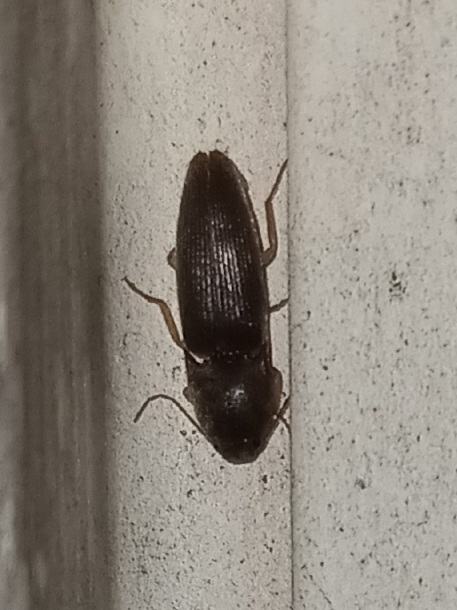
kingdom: Animalia
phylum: Arthropoda
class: Insecta
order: Coleoptera
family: Elateridae
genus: Conoderus
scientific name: Conoderus exsul
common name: Click beetle
